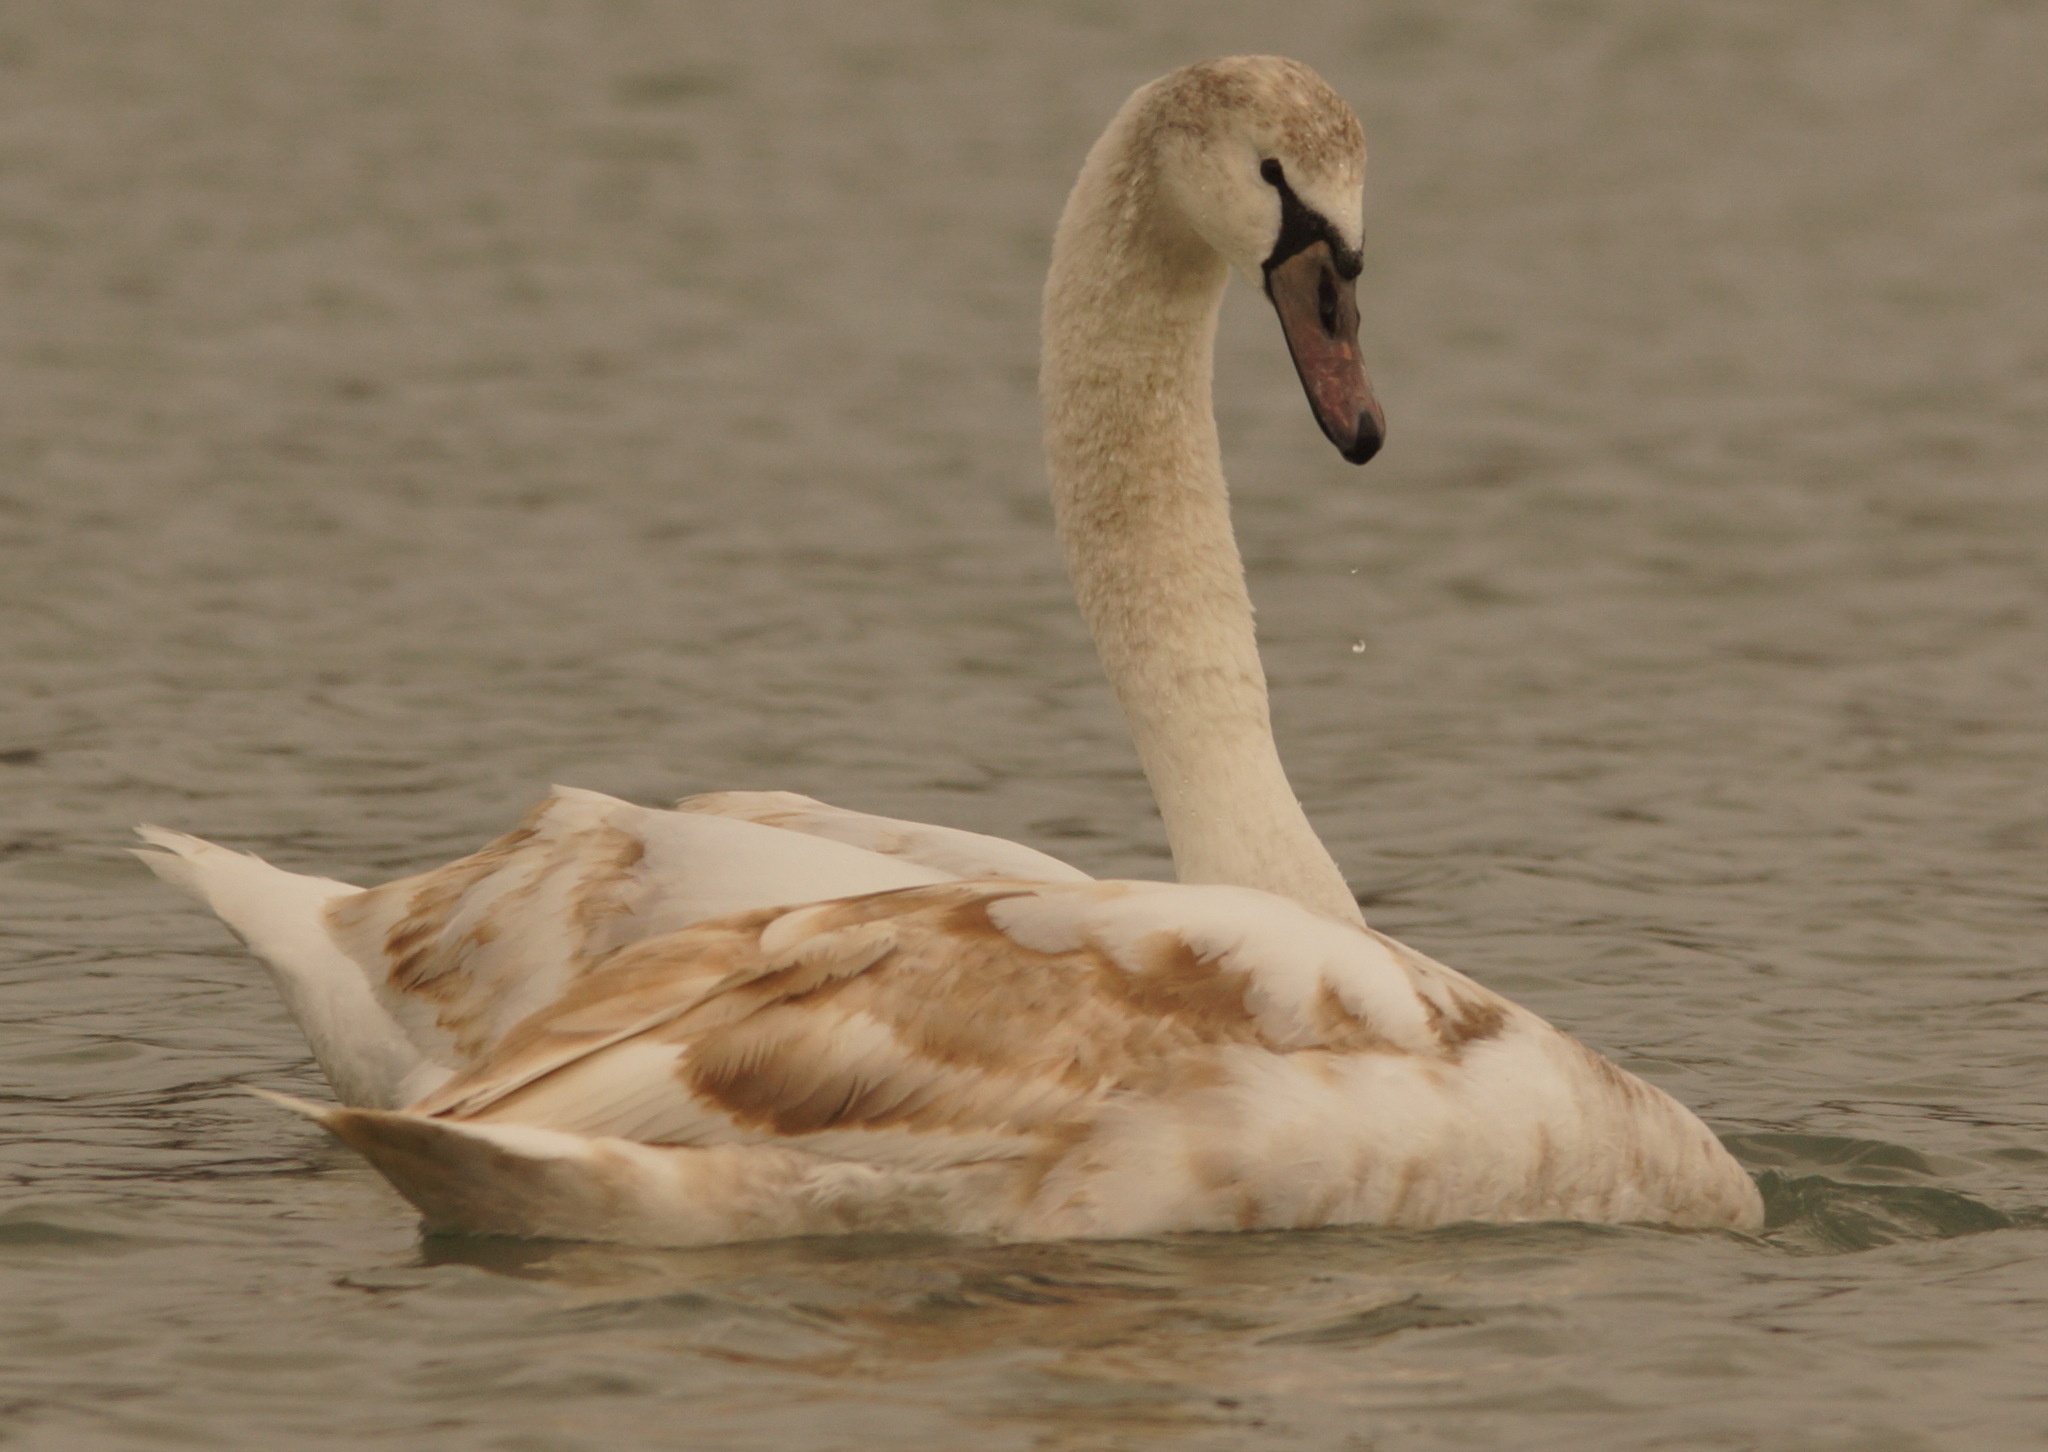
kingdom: Animalia
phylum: Chordata
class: Aves
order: Anseriformes
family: Anatidae
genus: Cygnus
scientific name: Cygnus olor
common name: Mute swan
